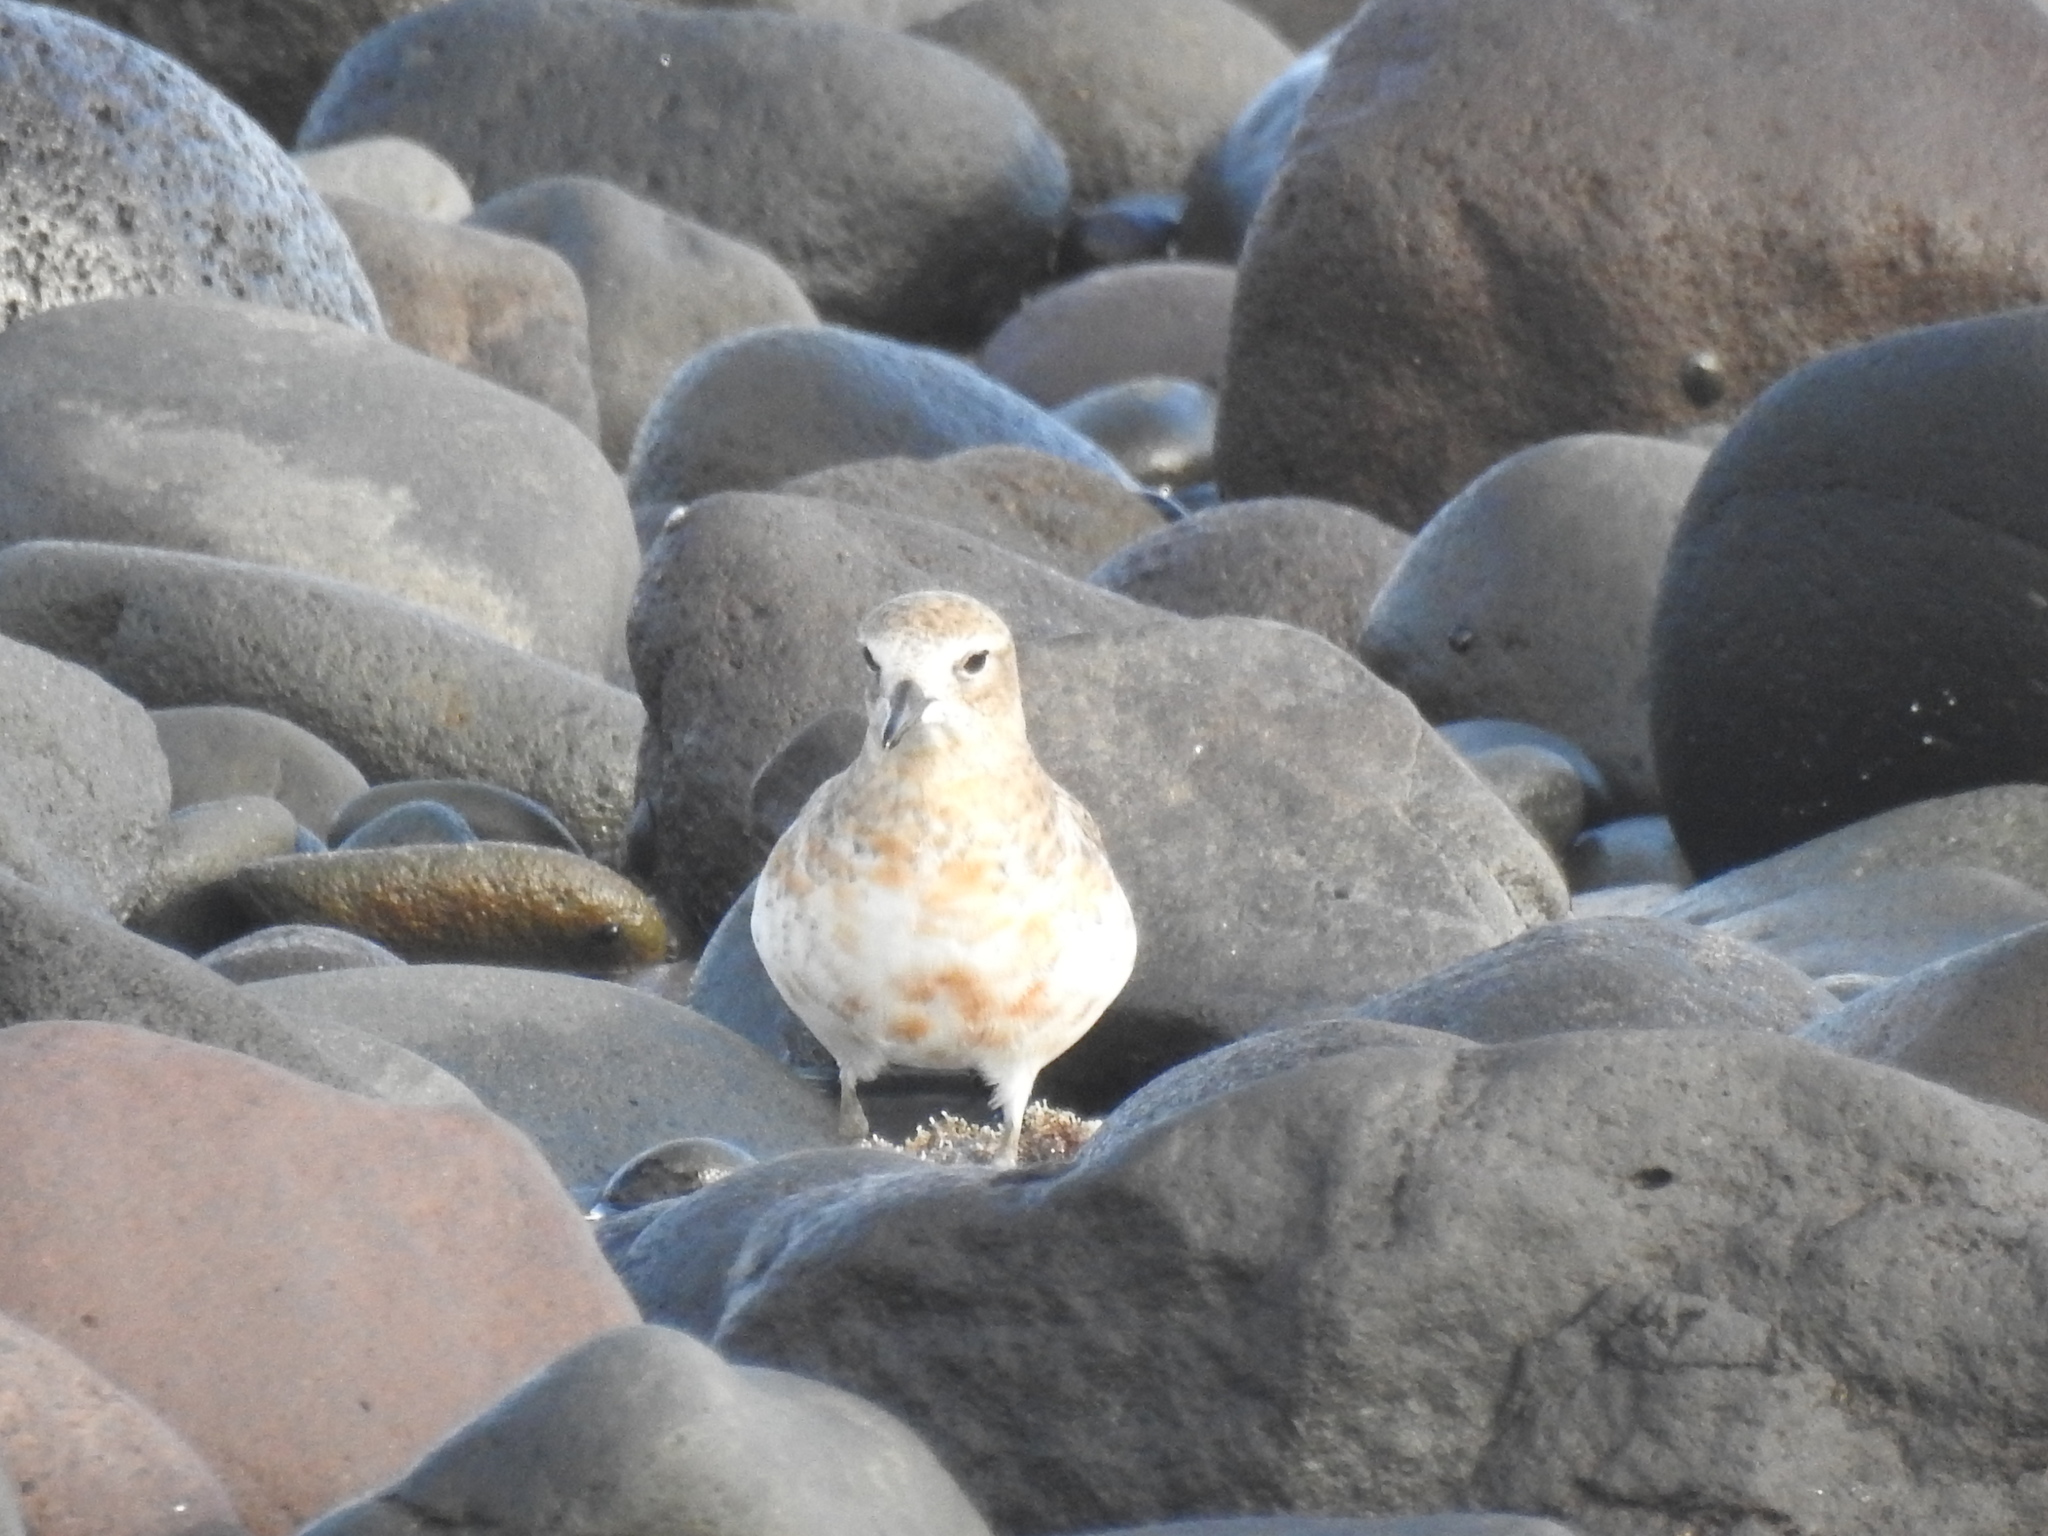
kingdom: Animalia
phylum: Chordata
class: Aves
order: Charadriiformes
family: Charadriidae
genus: Anarhynchus
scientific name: Anarhynchus
